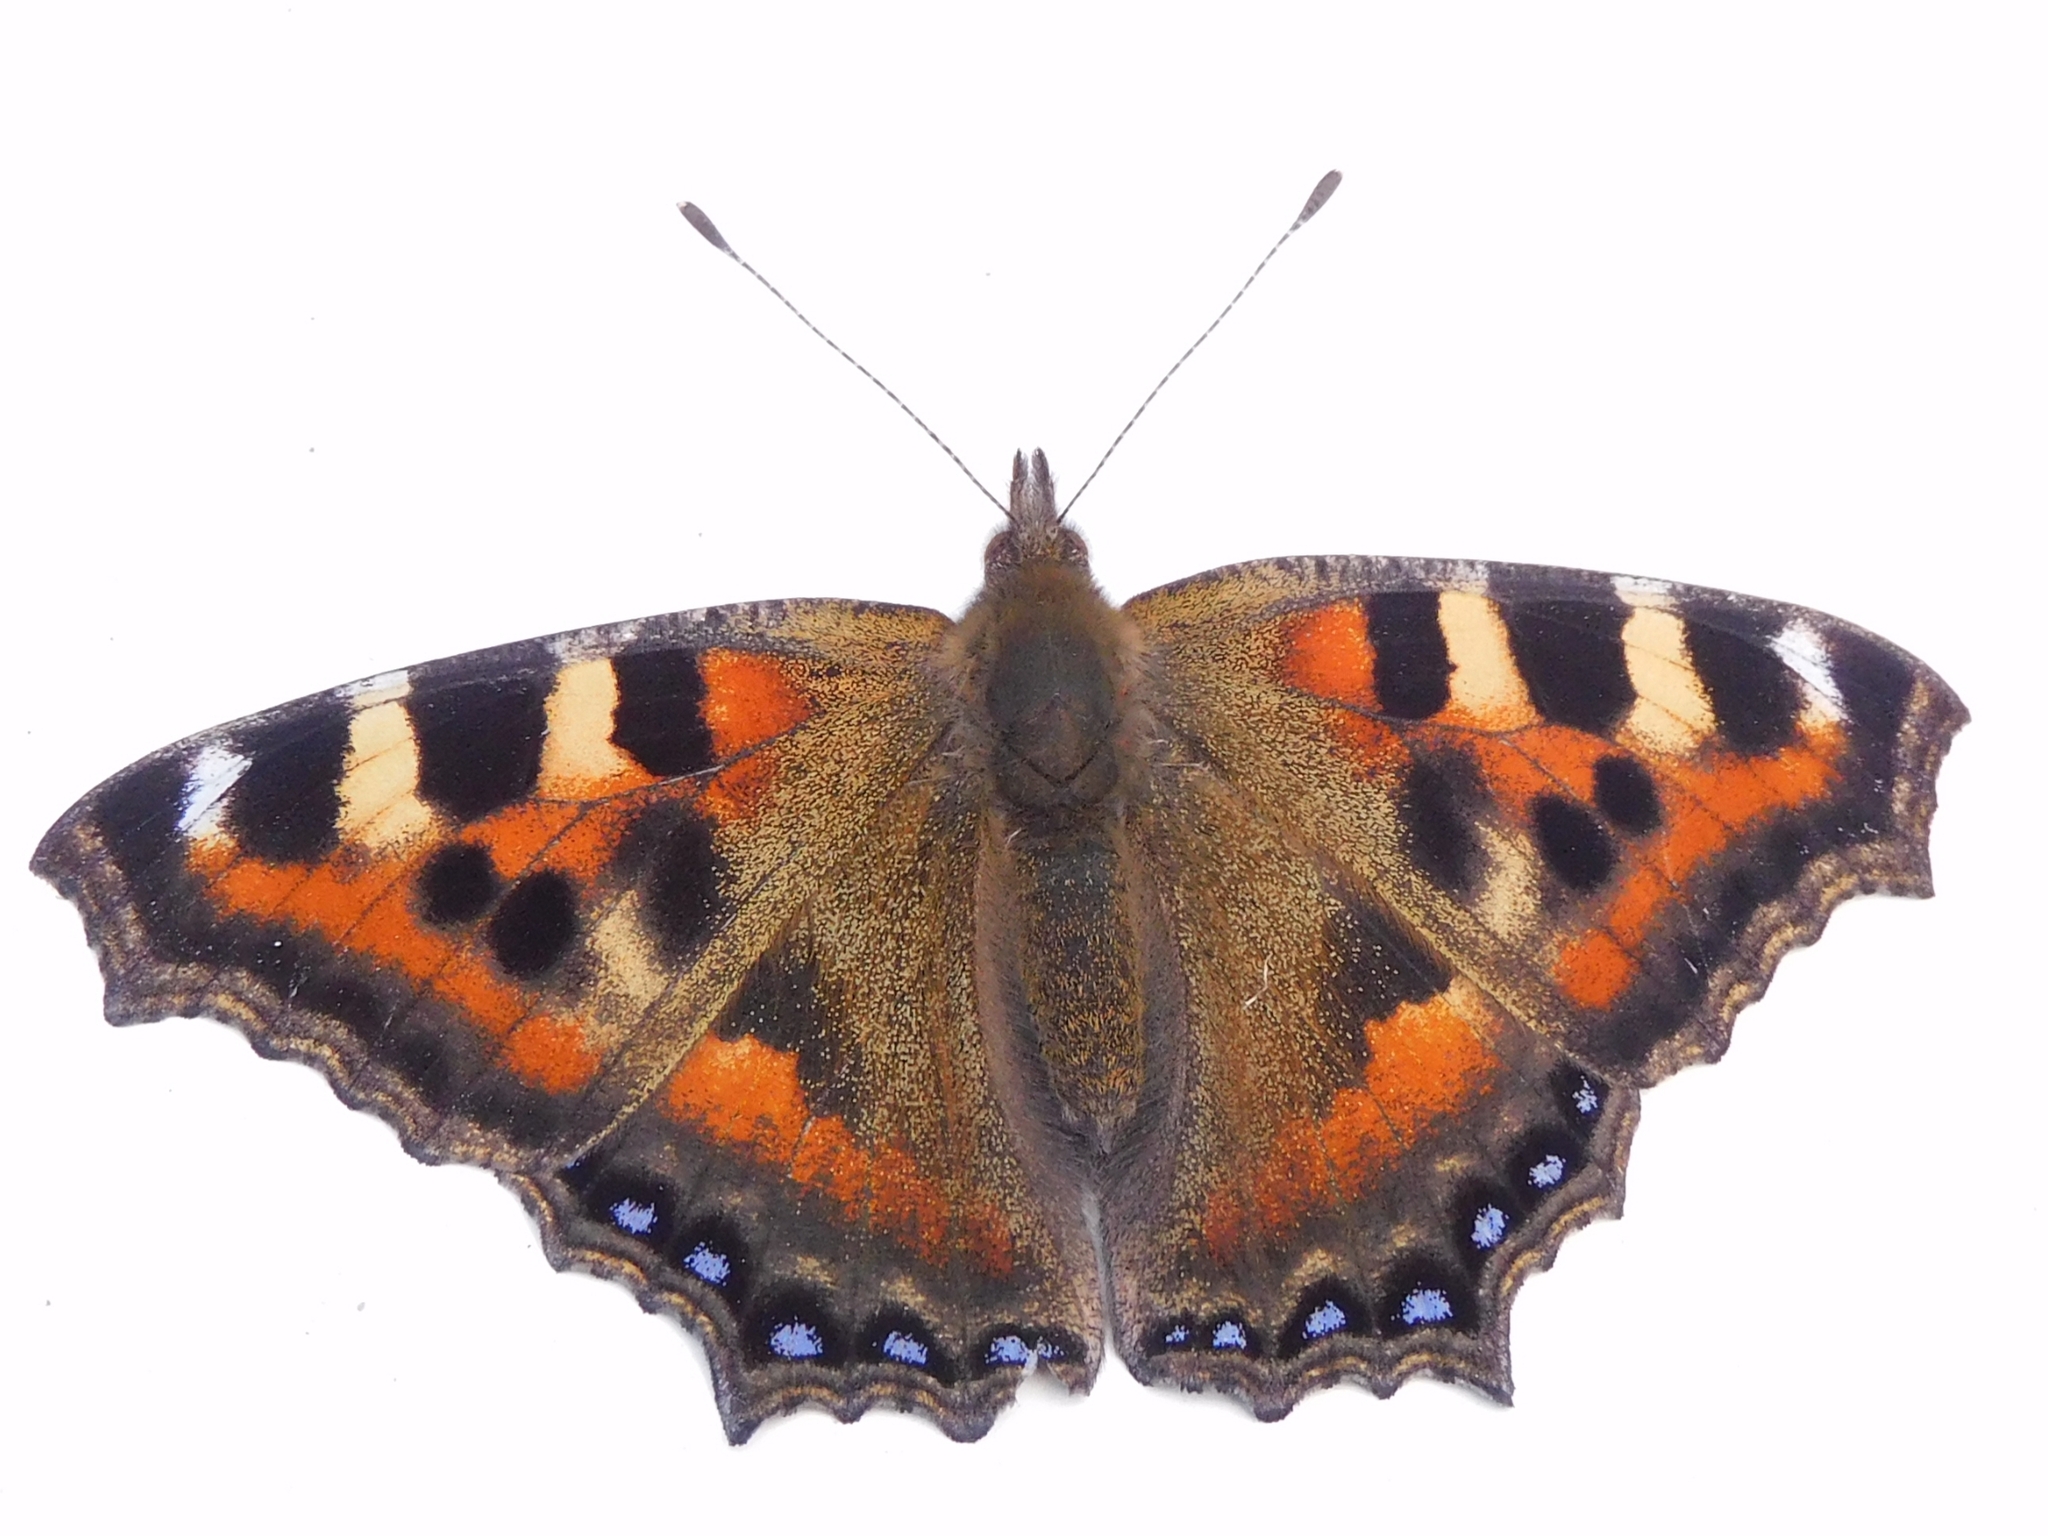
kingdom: Animalia
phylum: Arthropoda
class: Insecta
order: Lepidoptera
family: Nymphalidae
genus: Aglais
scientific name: Aglais caschmirensis
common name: Indian tortoiseshell
